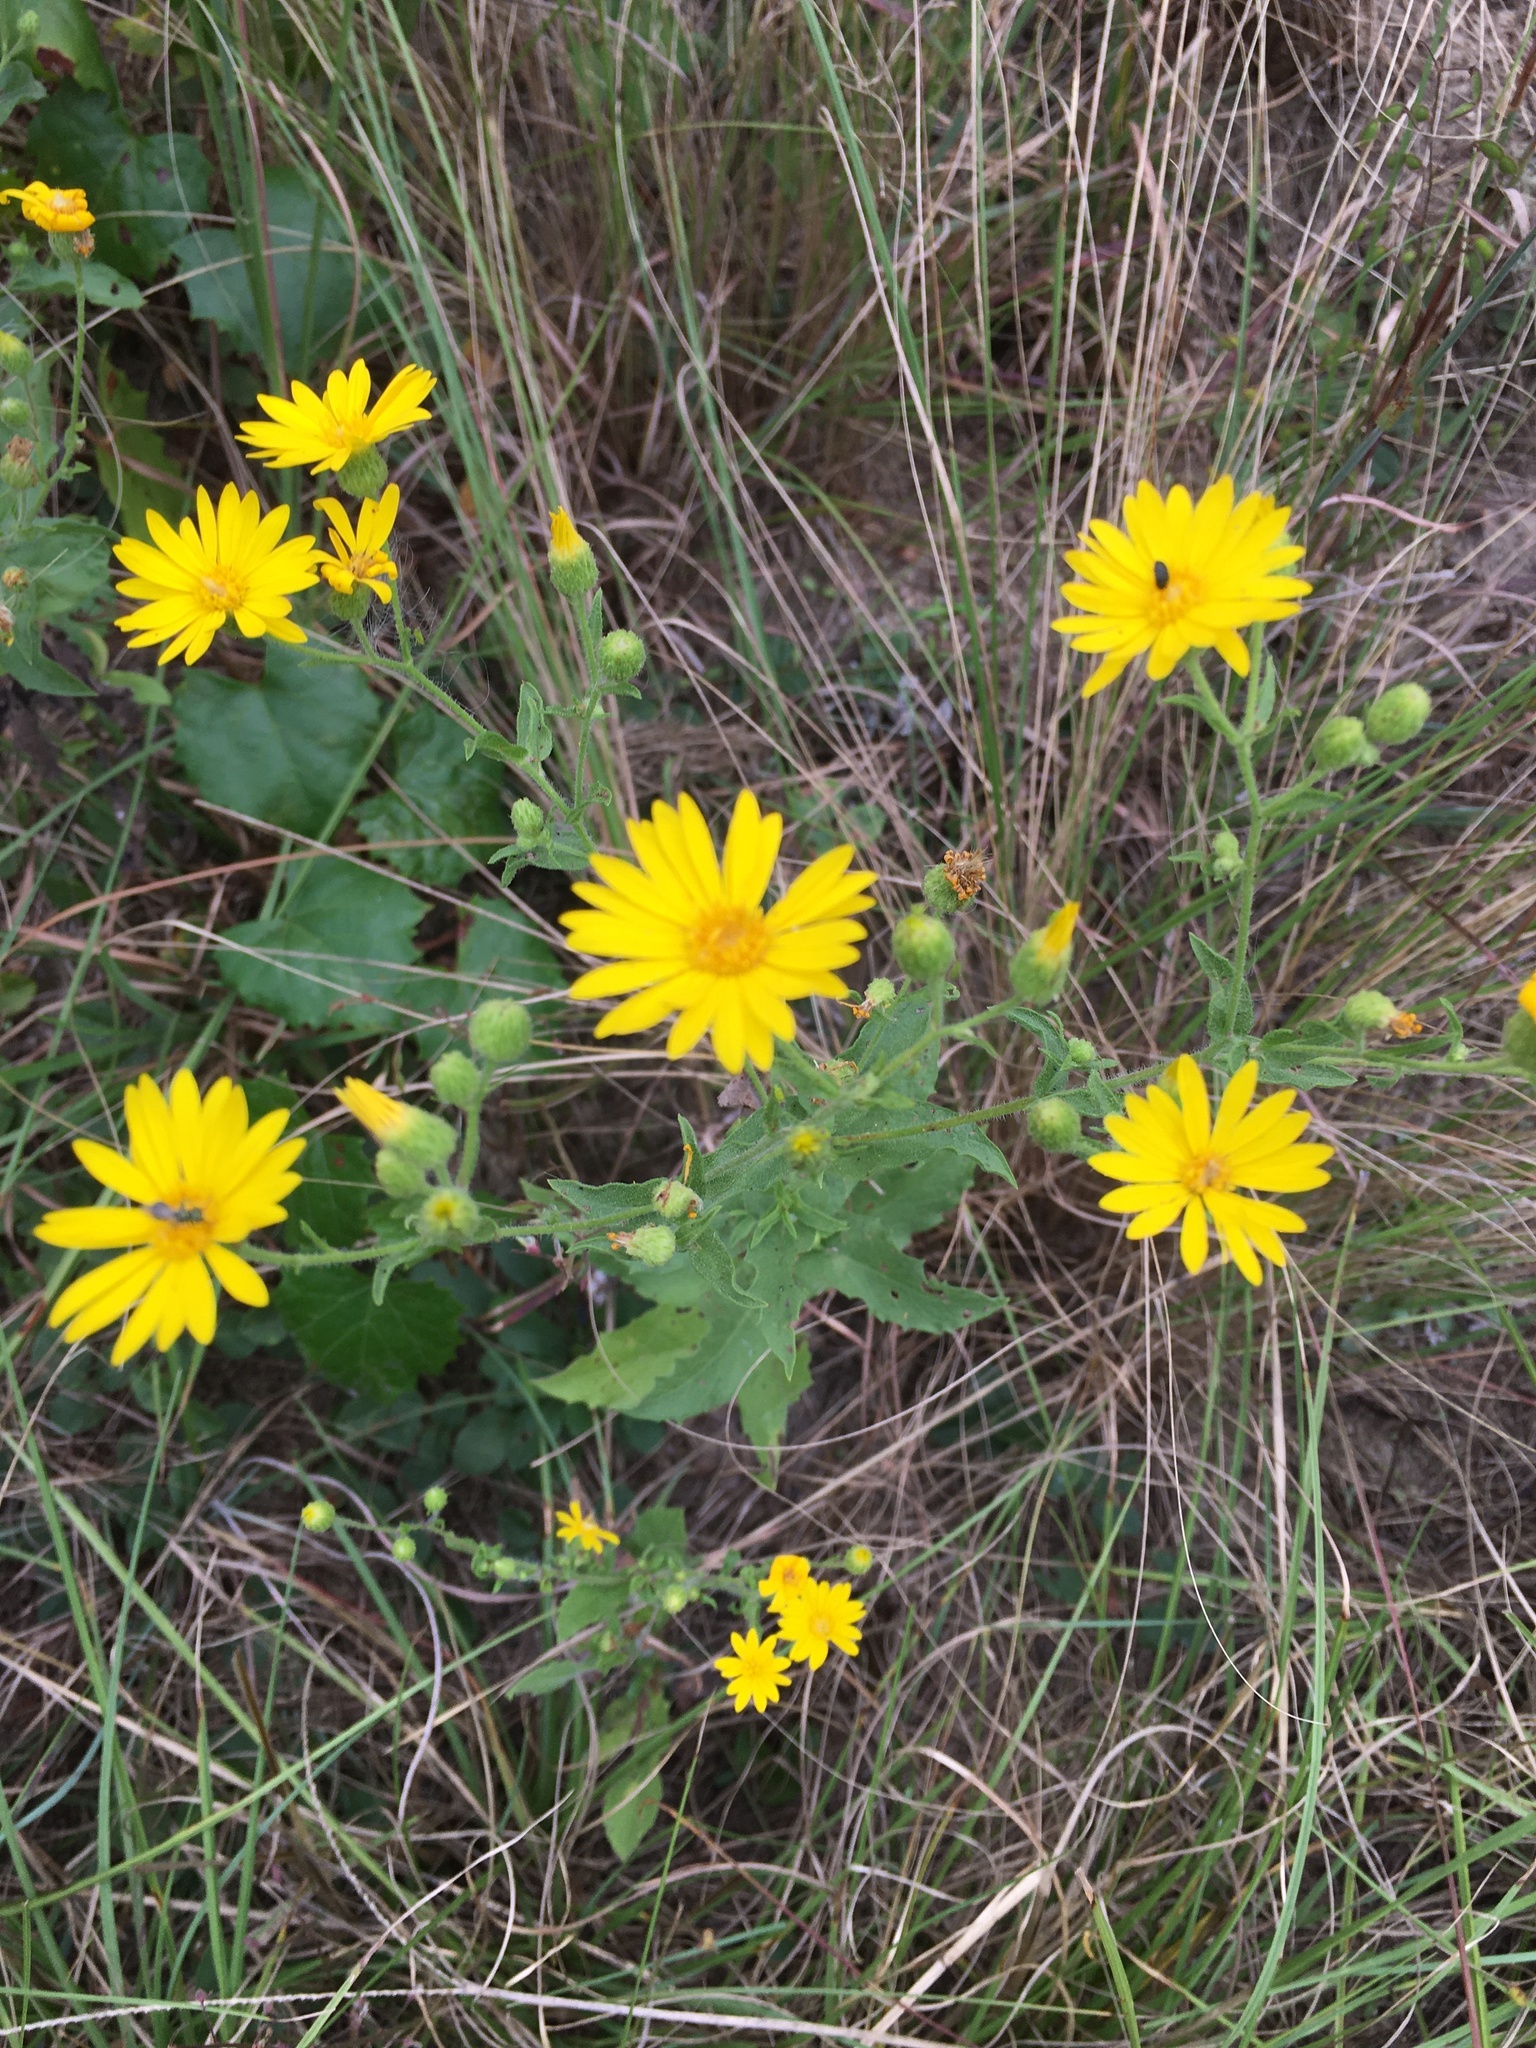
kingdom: Plantae
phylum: Tracheophyta
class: Magnoliopsida
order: Asterales
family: Asteraceae
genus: Heterotheca
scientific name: Heterotheca subaxillaris
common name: Camphorweed
